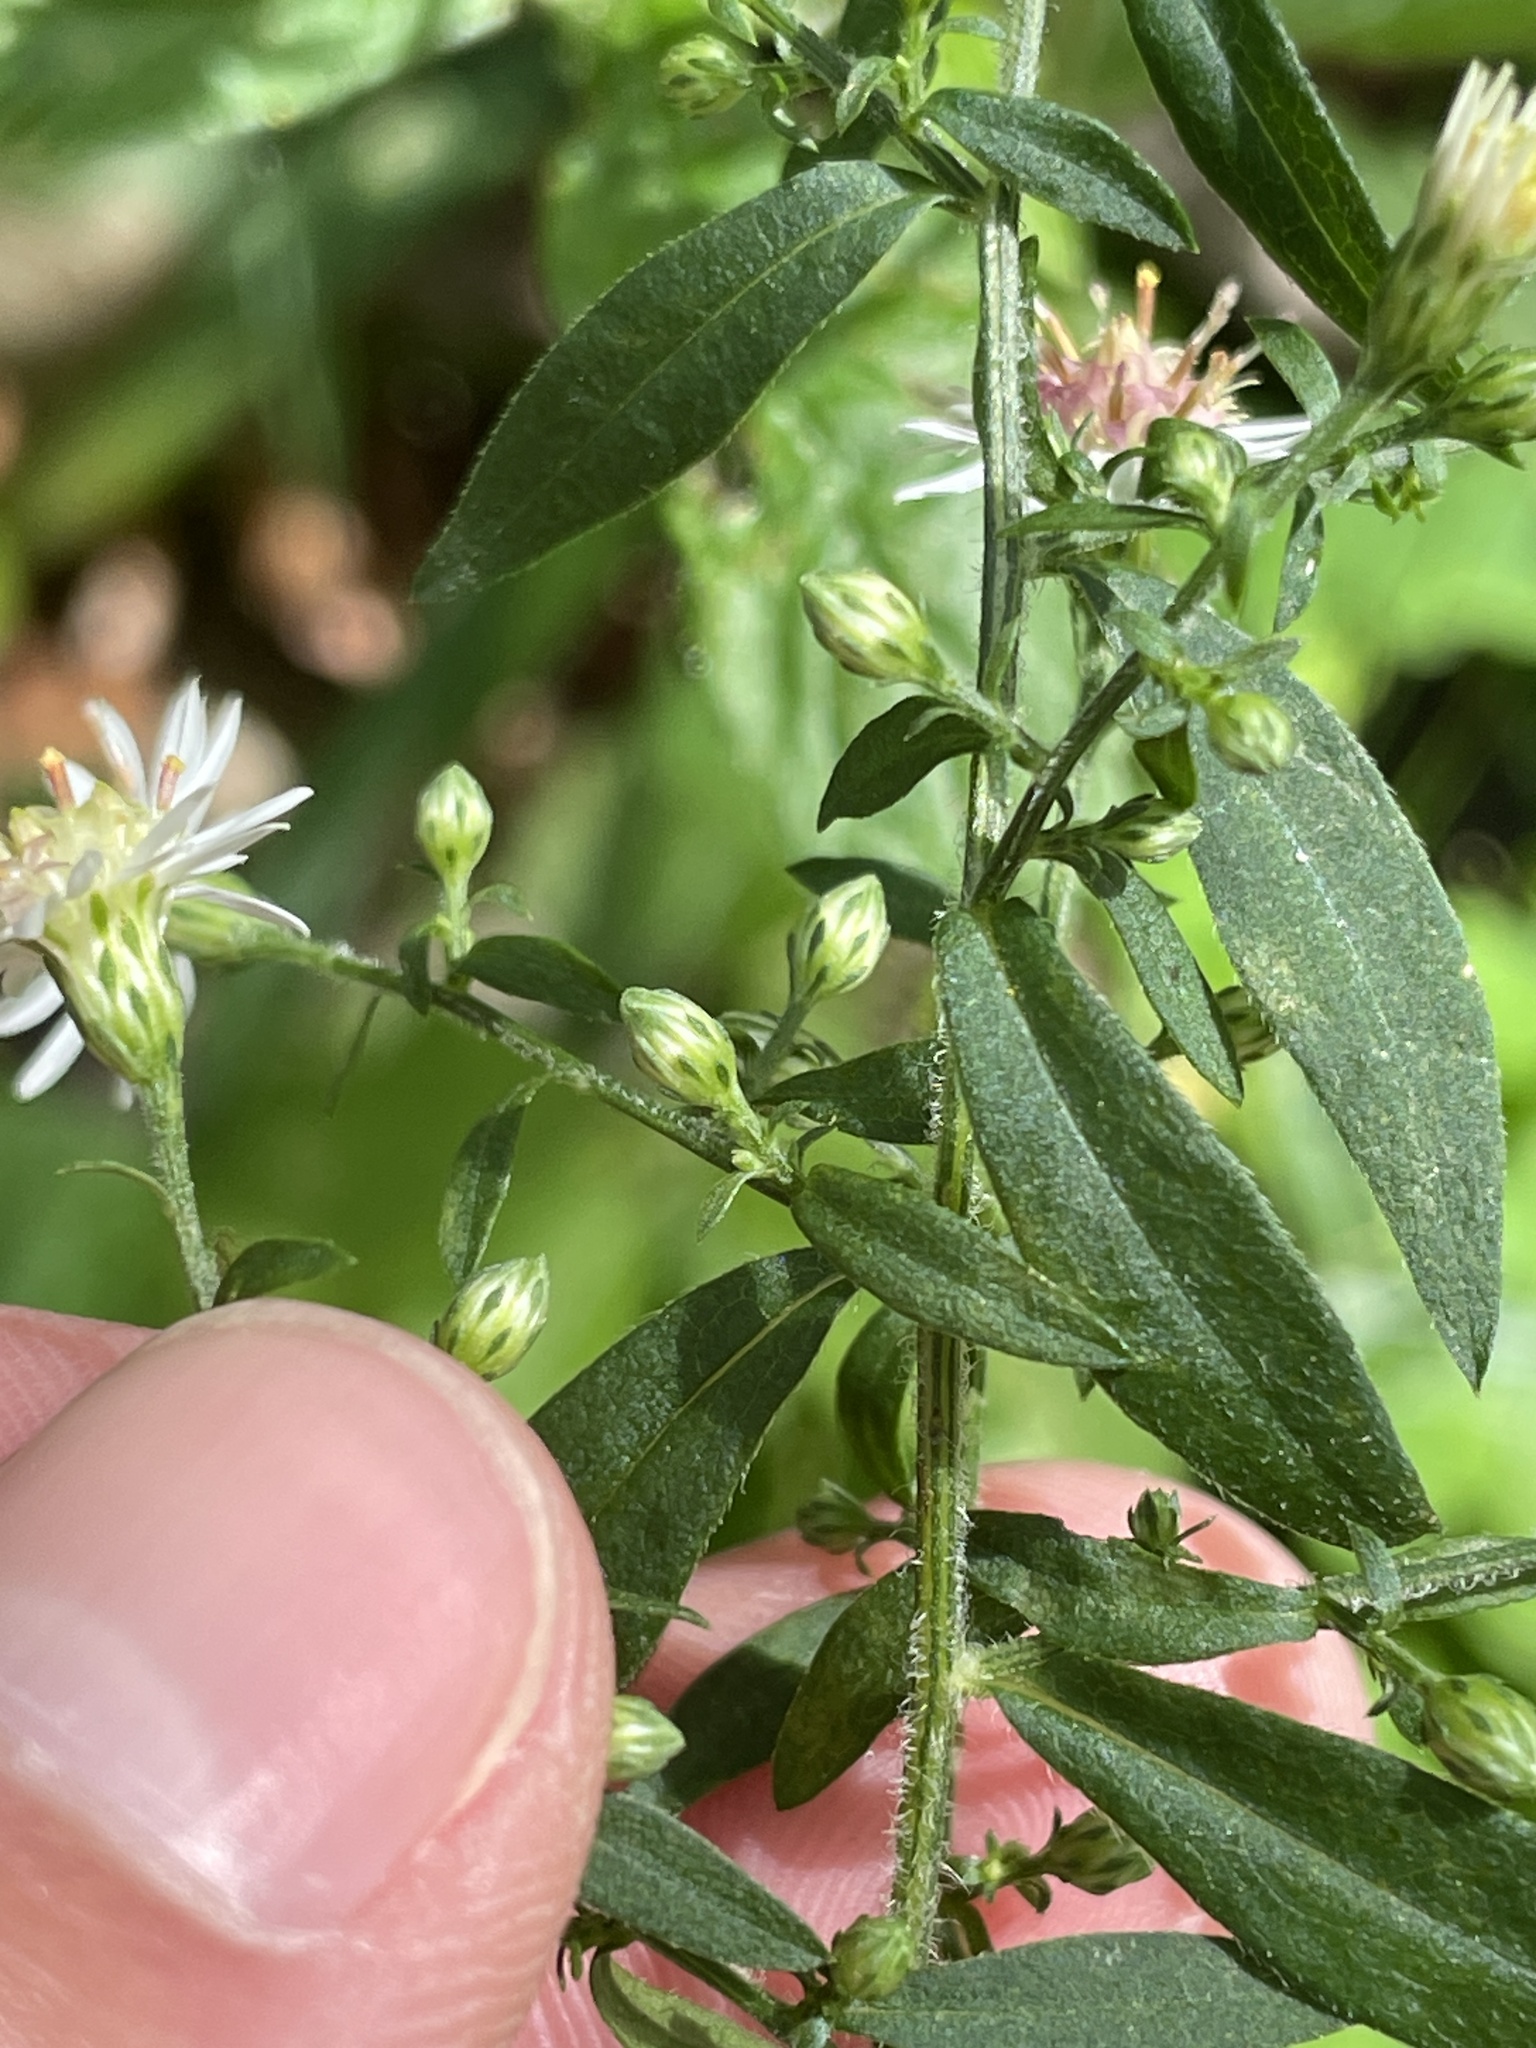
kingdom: Plantae
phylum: Tracheophyta
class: Magnoliopsida
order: Asterales
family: Asteraceae
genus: Symphyotrichum
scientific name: Symphyotrichum lateriflorum
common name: Calico aster
